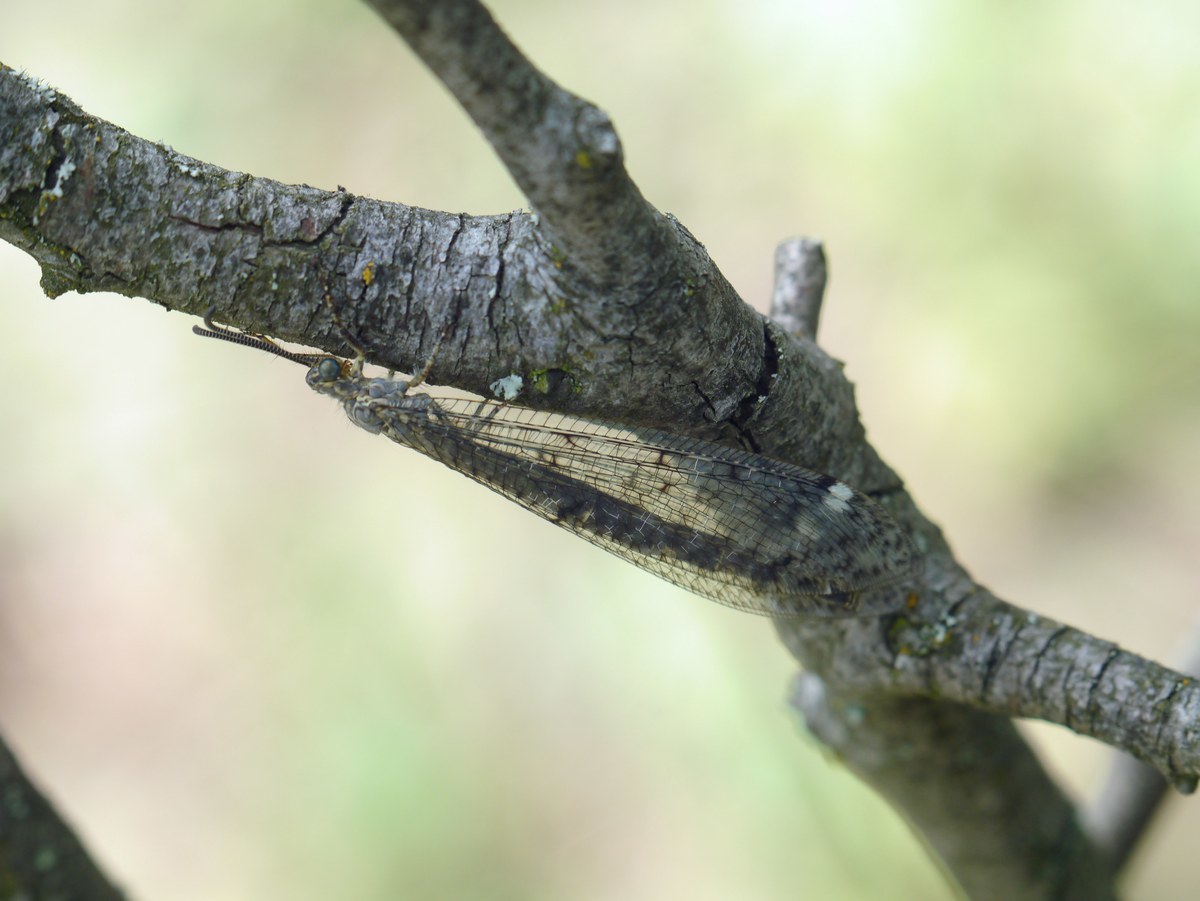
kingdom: Animalia
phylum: Arthropoda
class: Insecta
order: Neuroptera
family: Myrmeleontidae
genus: Distoleon
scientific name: Distoleon tetragrammicus
